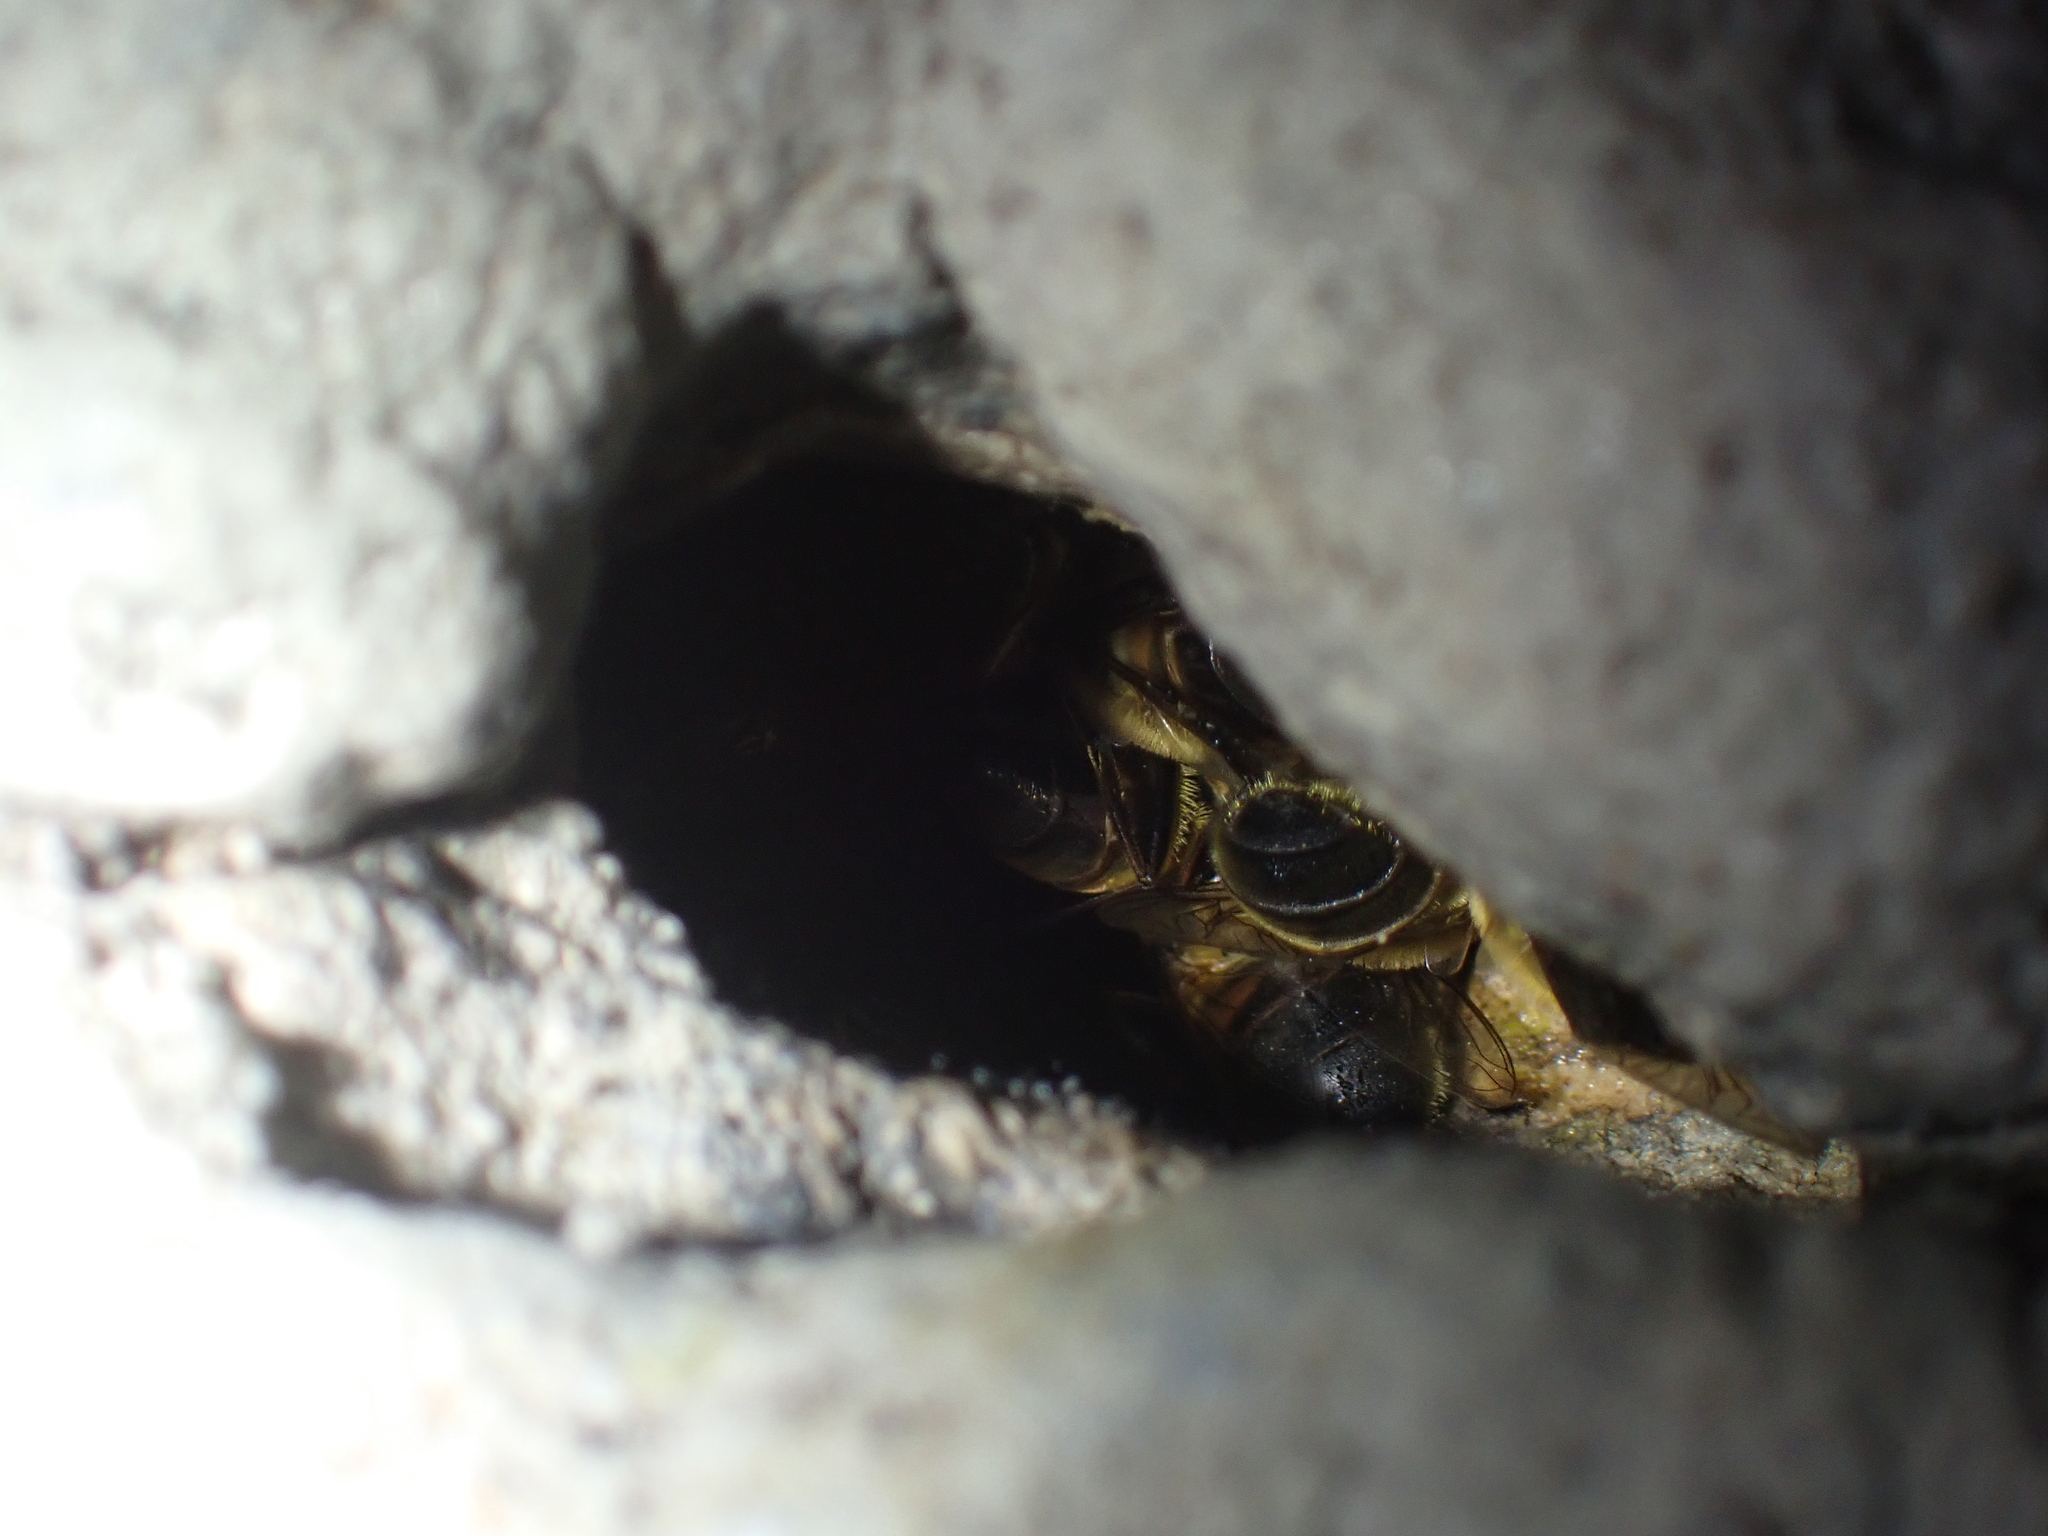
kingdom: Animalia
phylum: Arthropoda
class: Insecta
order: Diptera
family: Syrphidae
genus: Eristalis
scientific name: Eristalis tenax
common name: Drone fly
